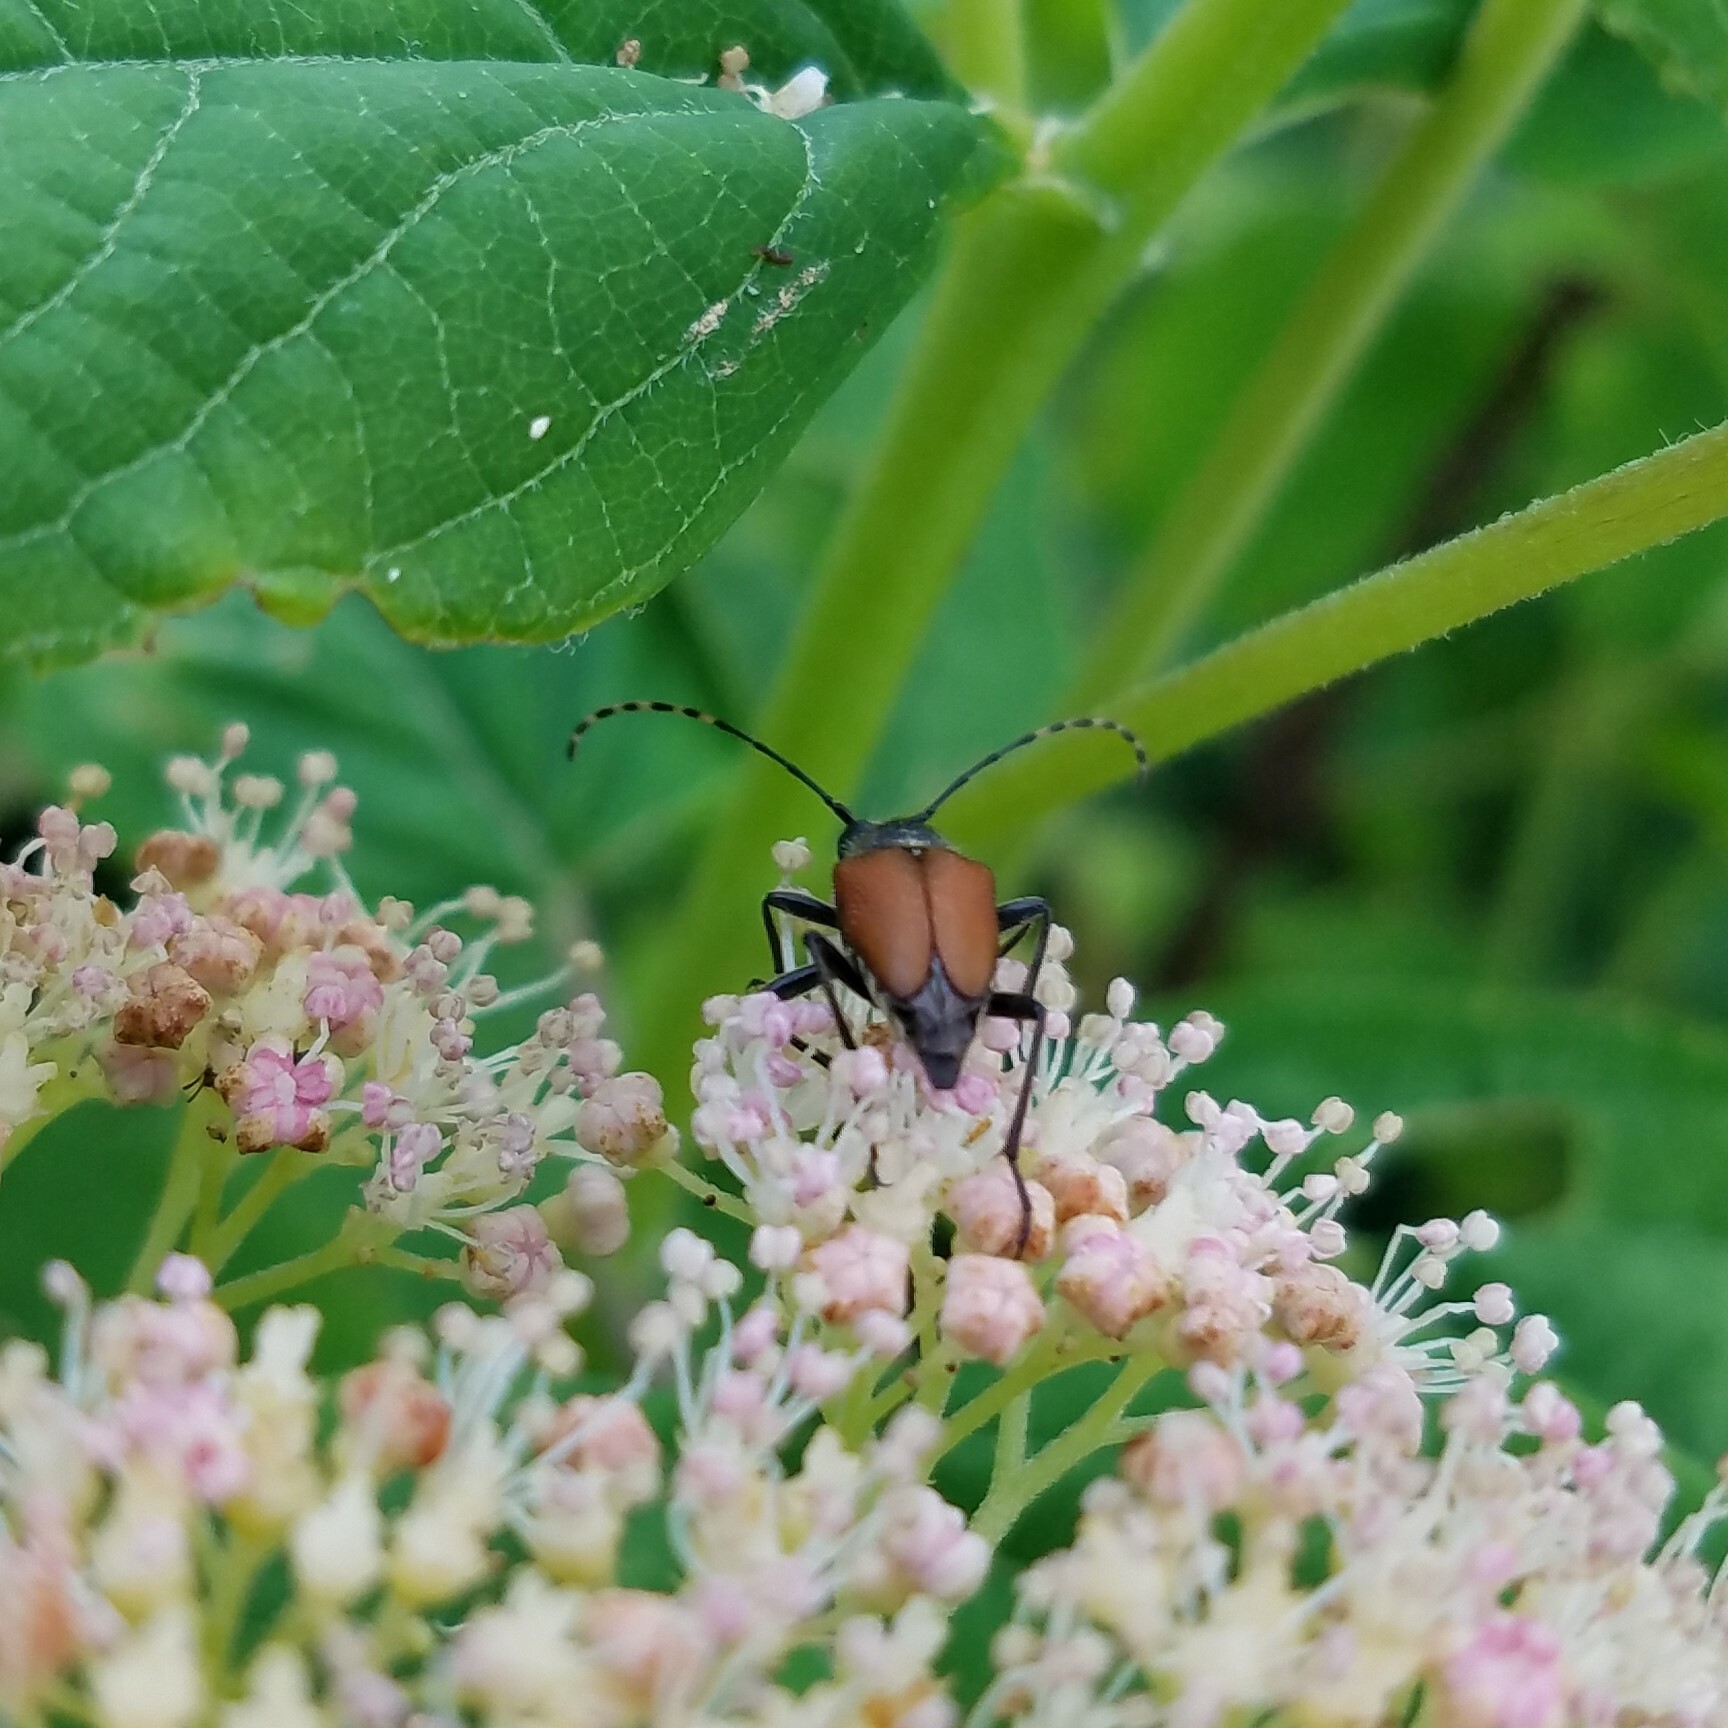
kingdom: Animalia
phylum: Arthropoda
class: Insecta
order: Coleoptera
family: Cerambycidae
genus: Brachyleptura
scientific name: Brachyleptura rubrica
